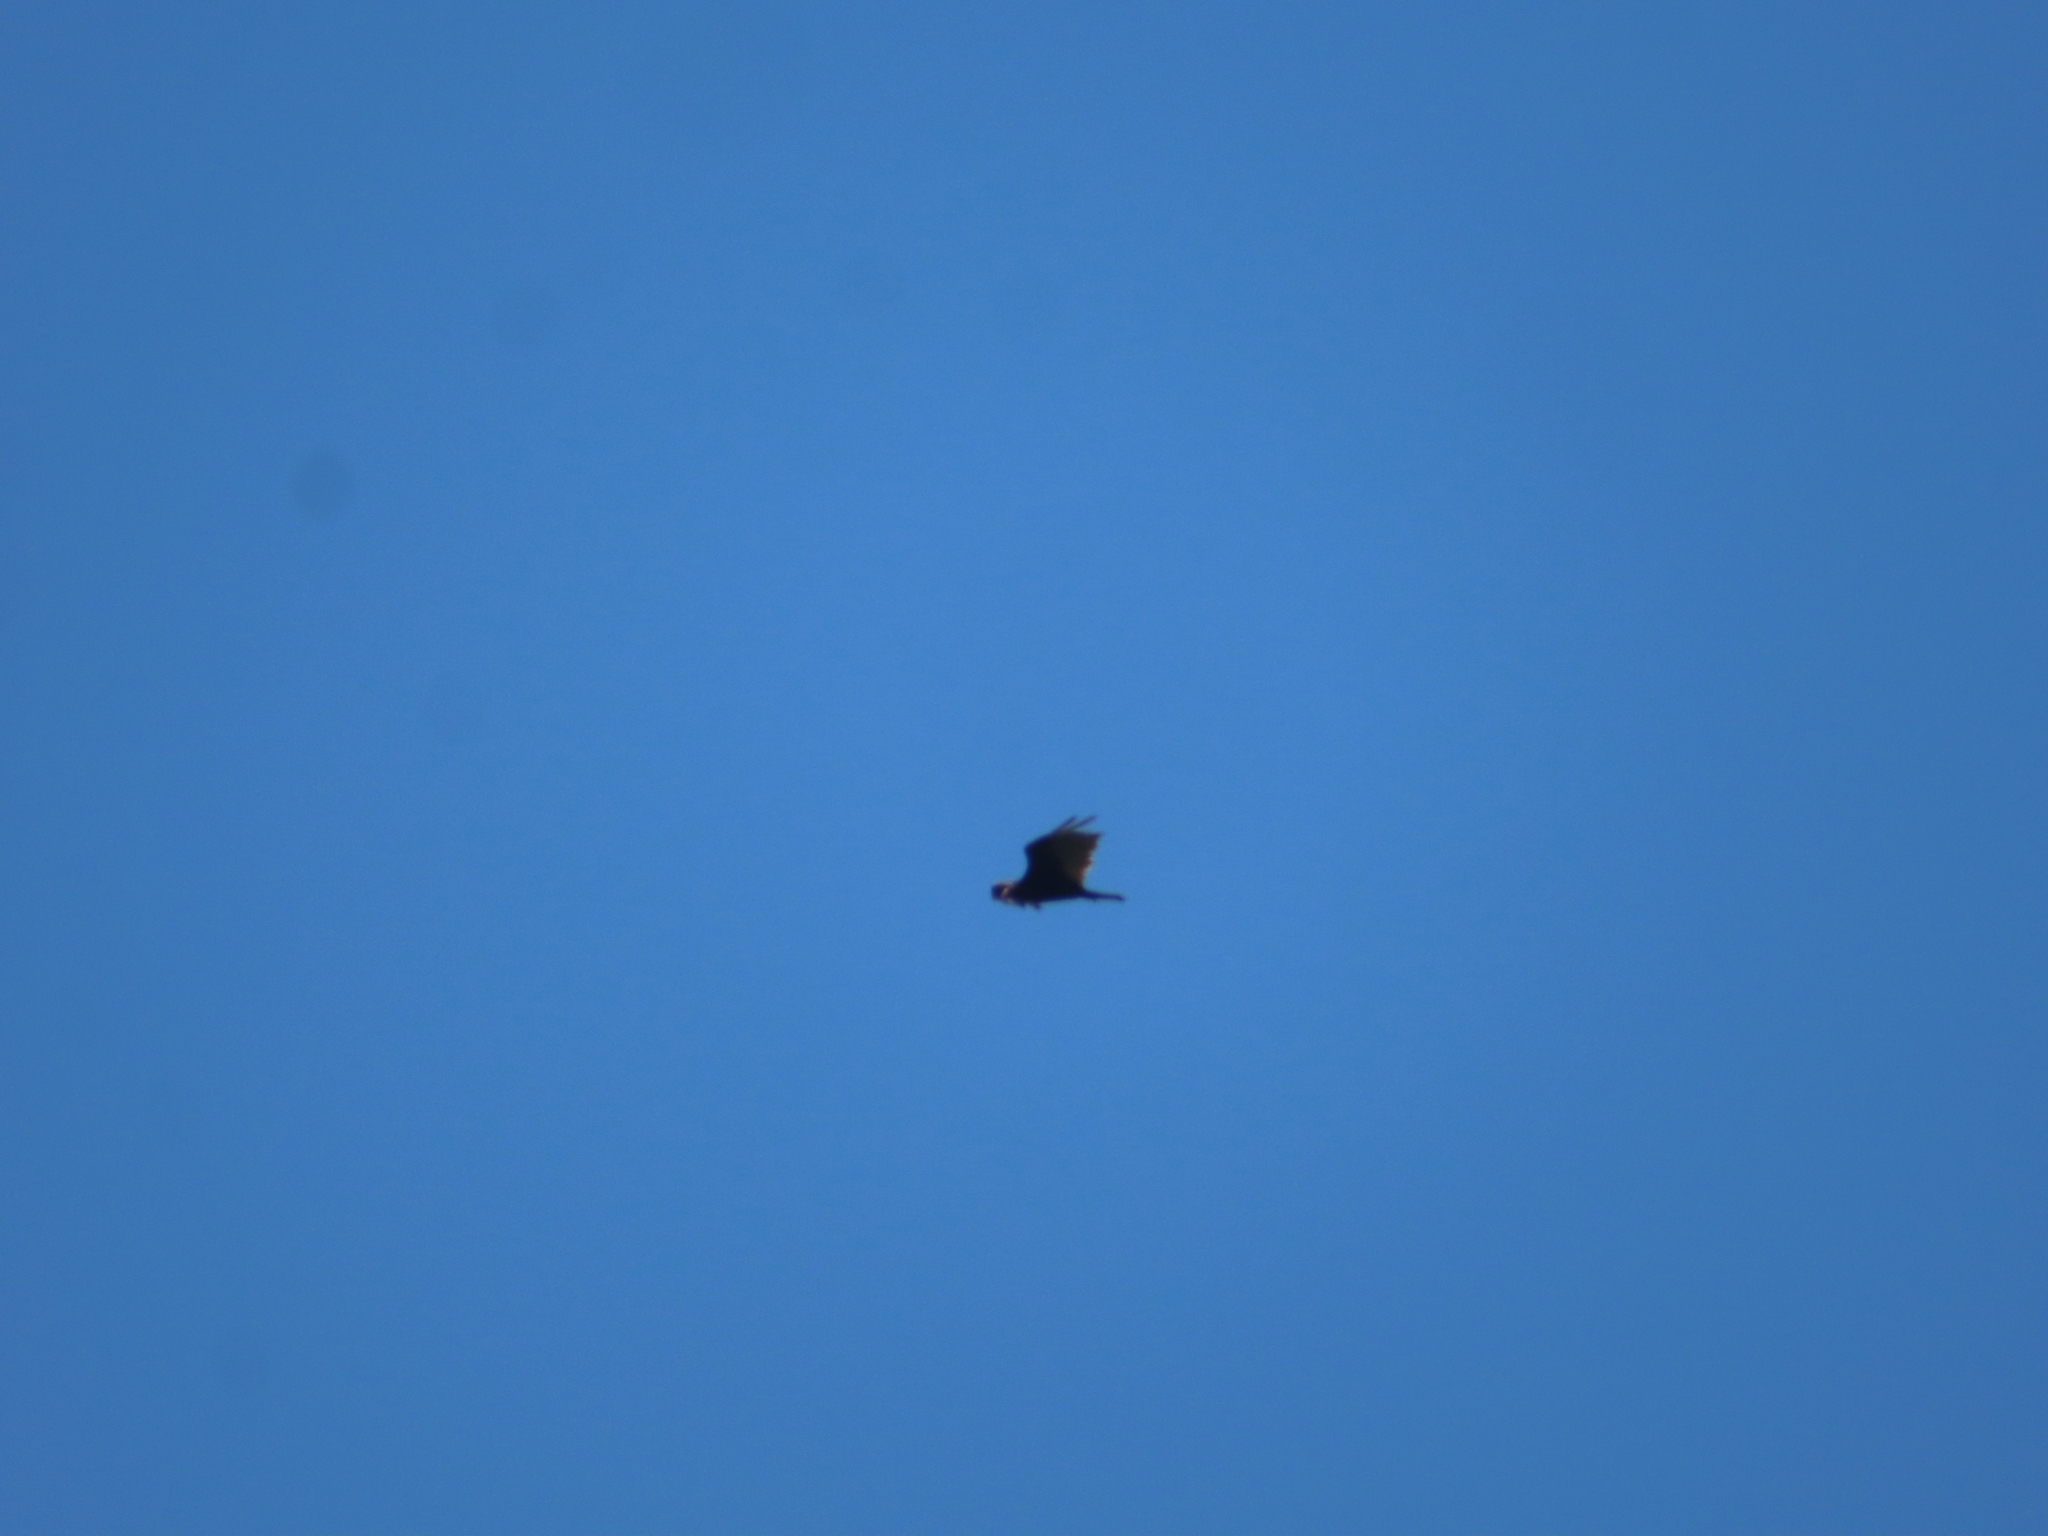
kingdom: Animalia
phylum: Chordata
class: Aves
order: Accipitriformes
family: Cathartidae
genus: Cathartes
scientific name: Cathartes aura
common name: Turkey vulture
